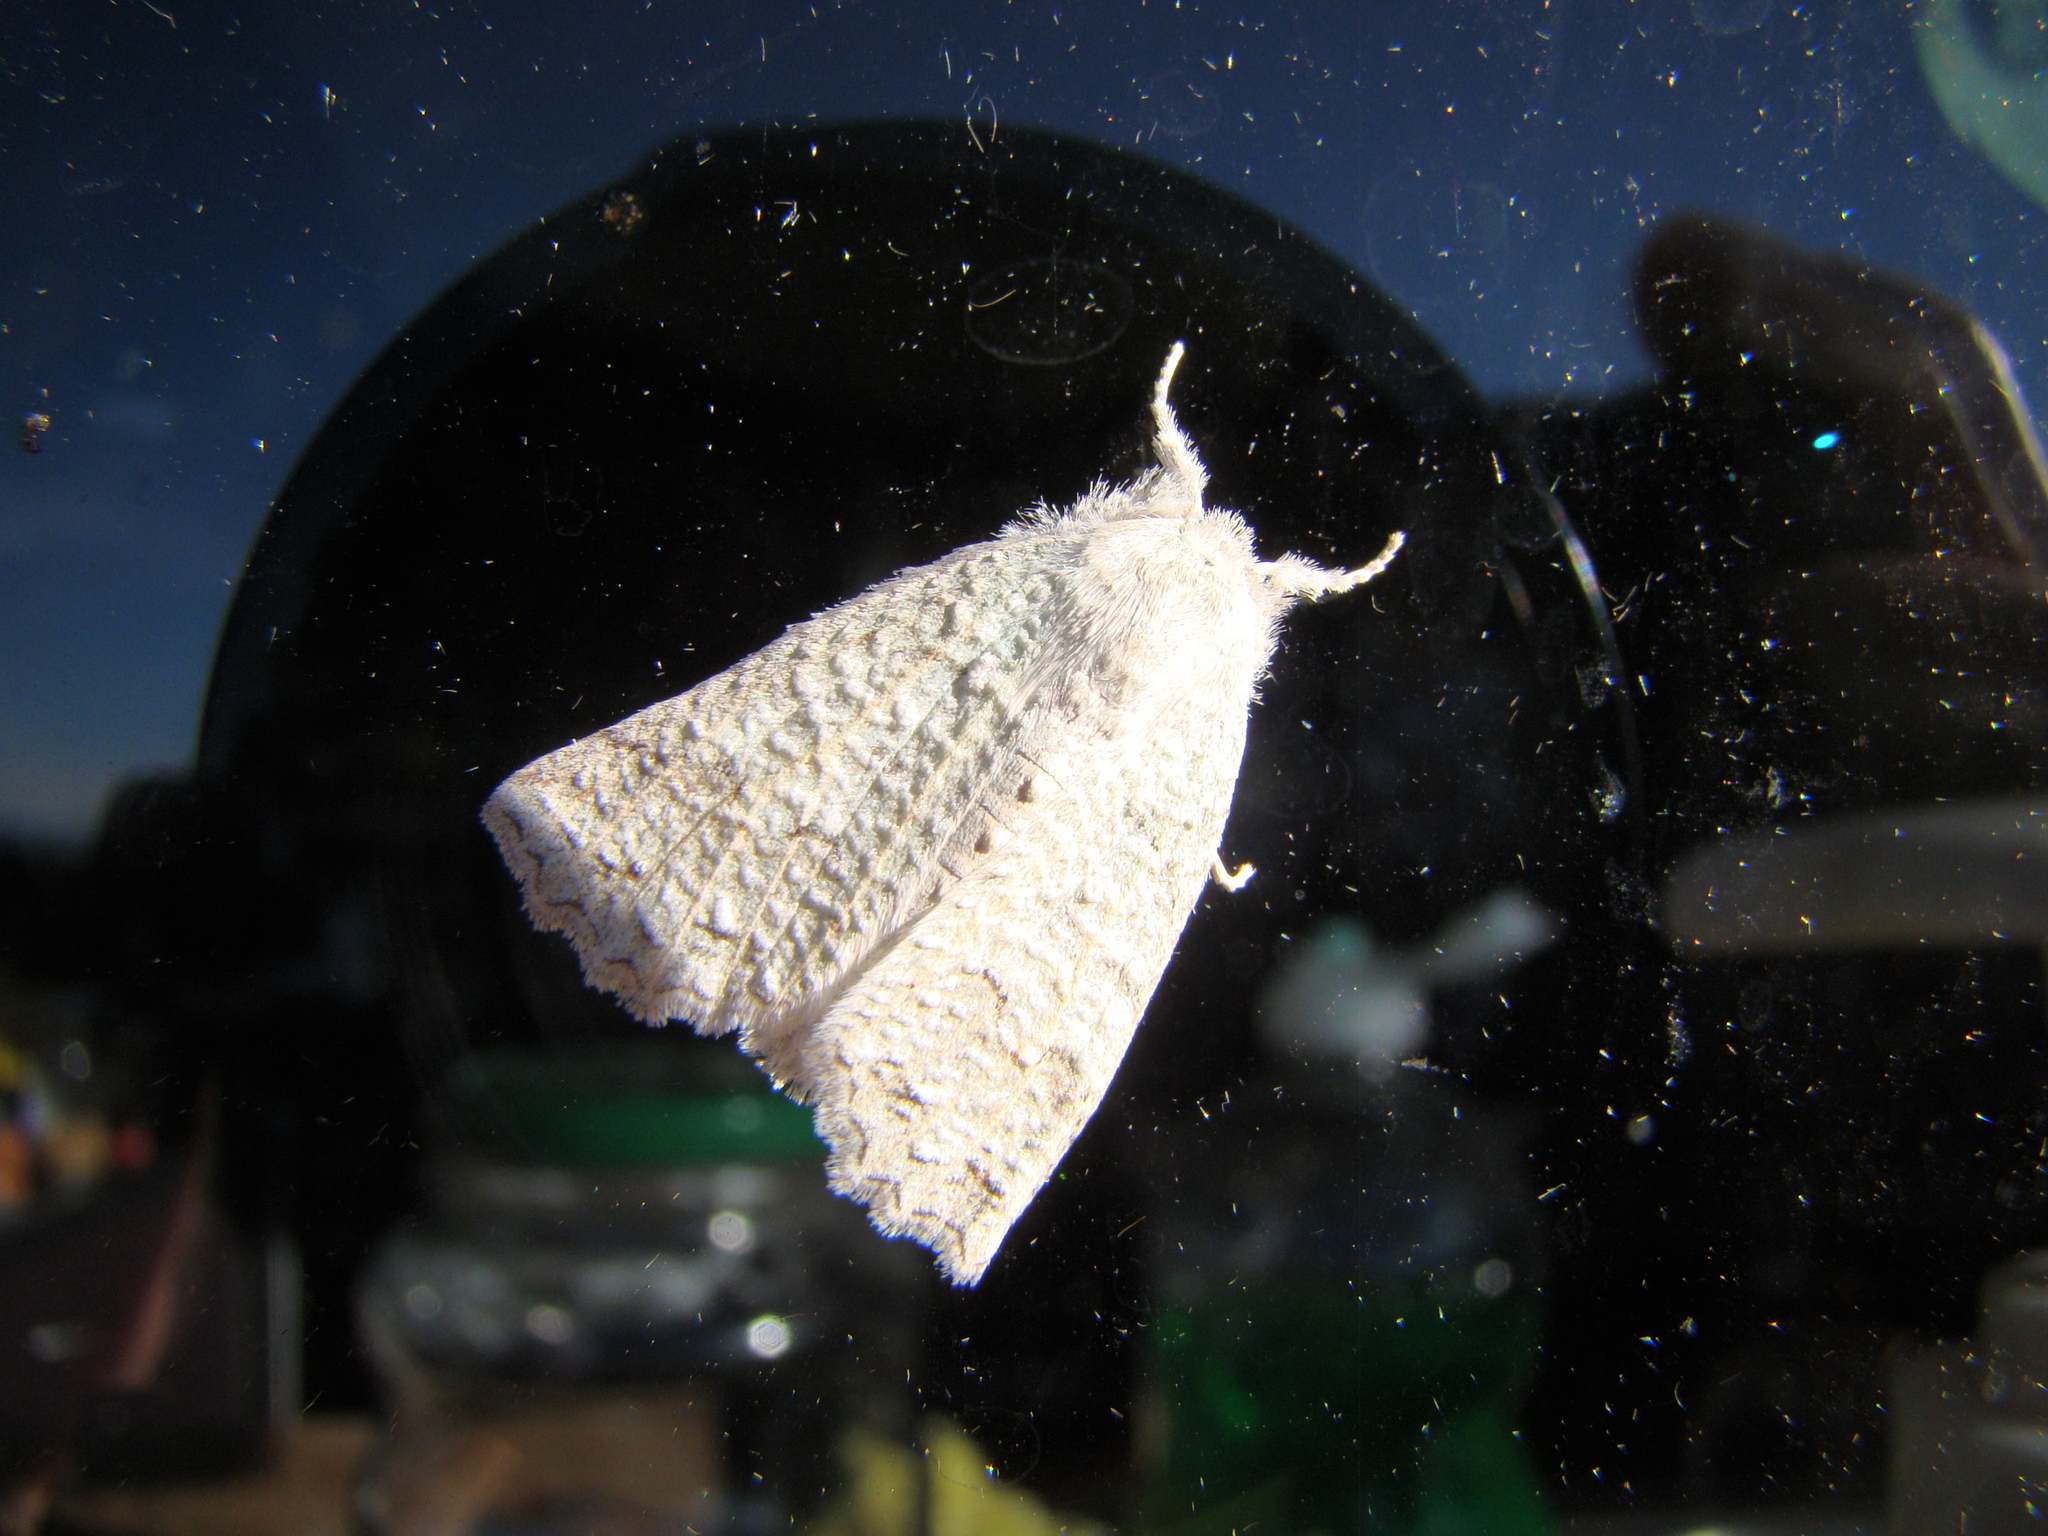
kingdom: Animalia
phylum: Arthropoda
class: Insecta
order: Lepidoptera
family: Geometridae
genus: Declana
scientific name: Declana niveata
